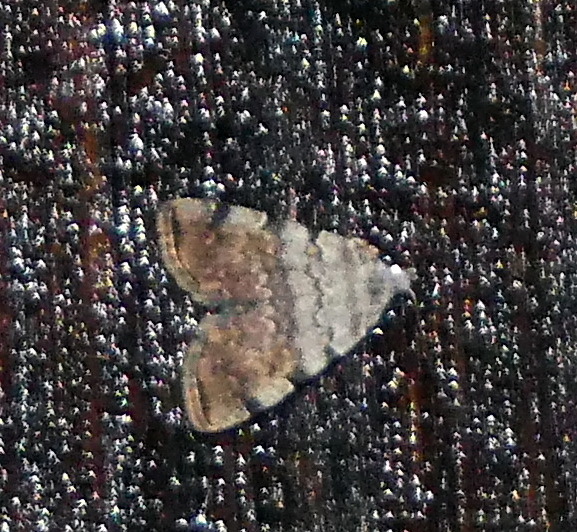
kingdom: Animalia
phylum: Arthropoda
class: Insecta
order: Lepidoptera
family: Erebidae
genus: Idia
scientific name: Idia americalis
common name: American idia moth
